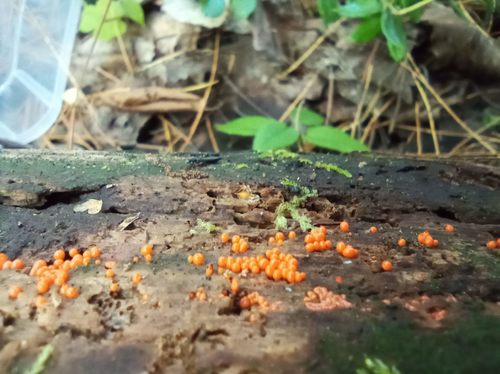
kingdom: Protozoa
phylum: Mycetozoa
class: Myxomycetes
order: Trichiales
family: Arcyriaceae
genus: Hemitrichia
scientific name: Hemitrichia decipiens
